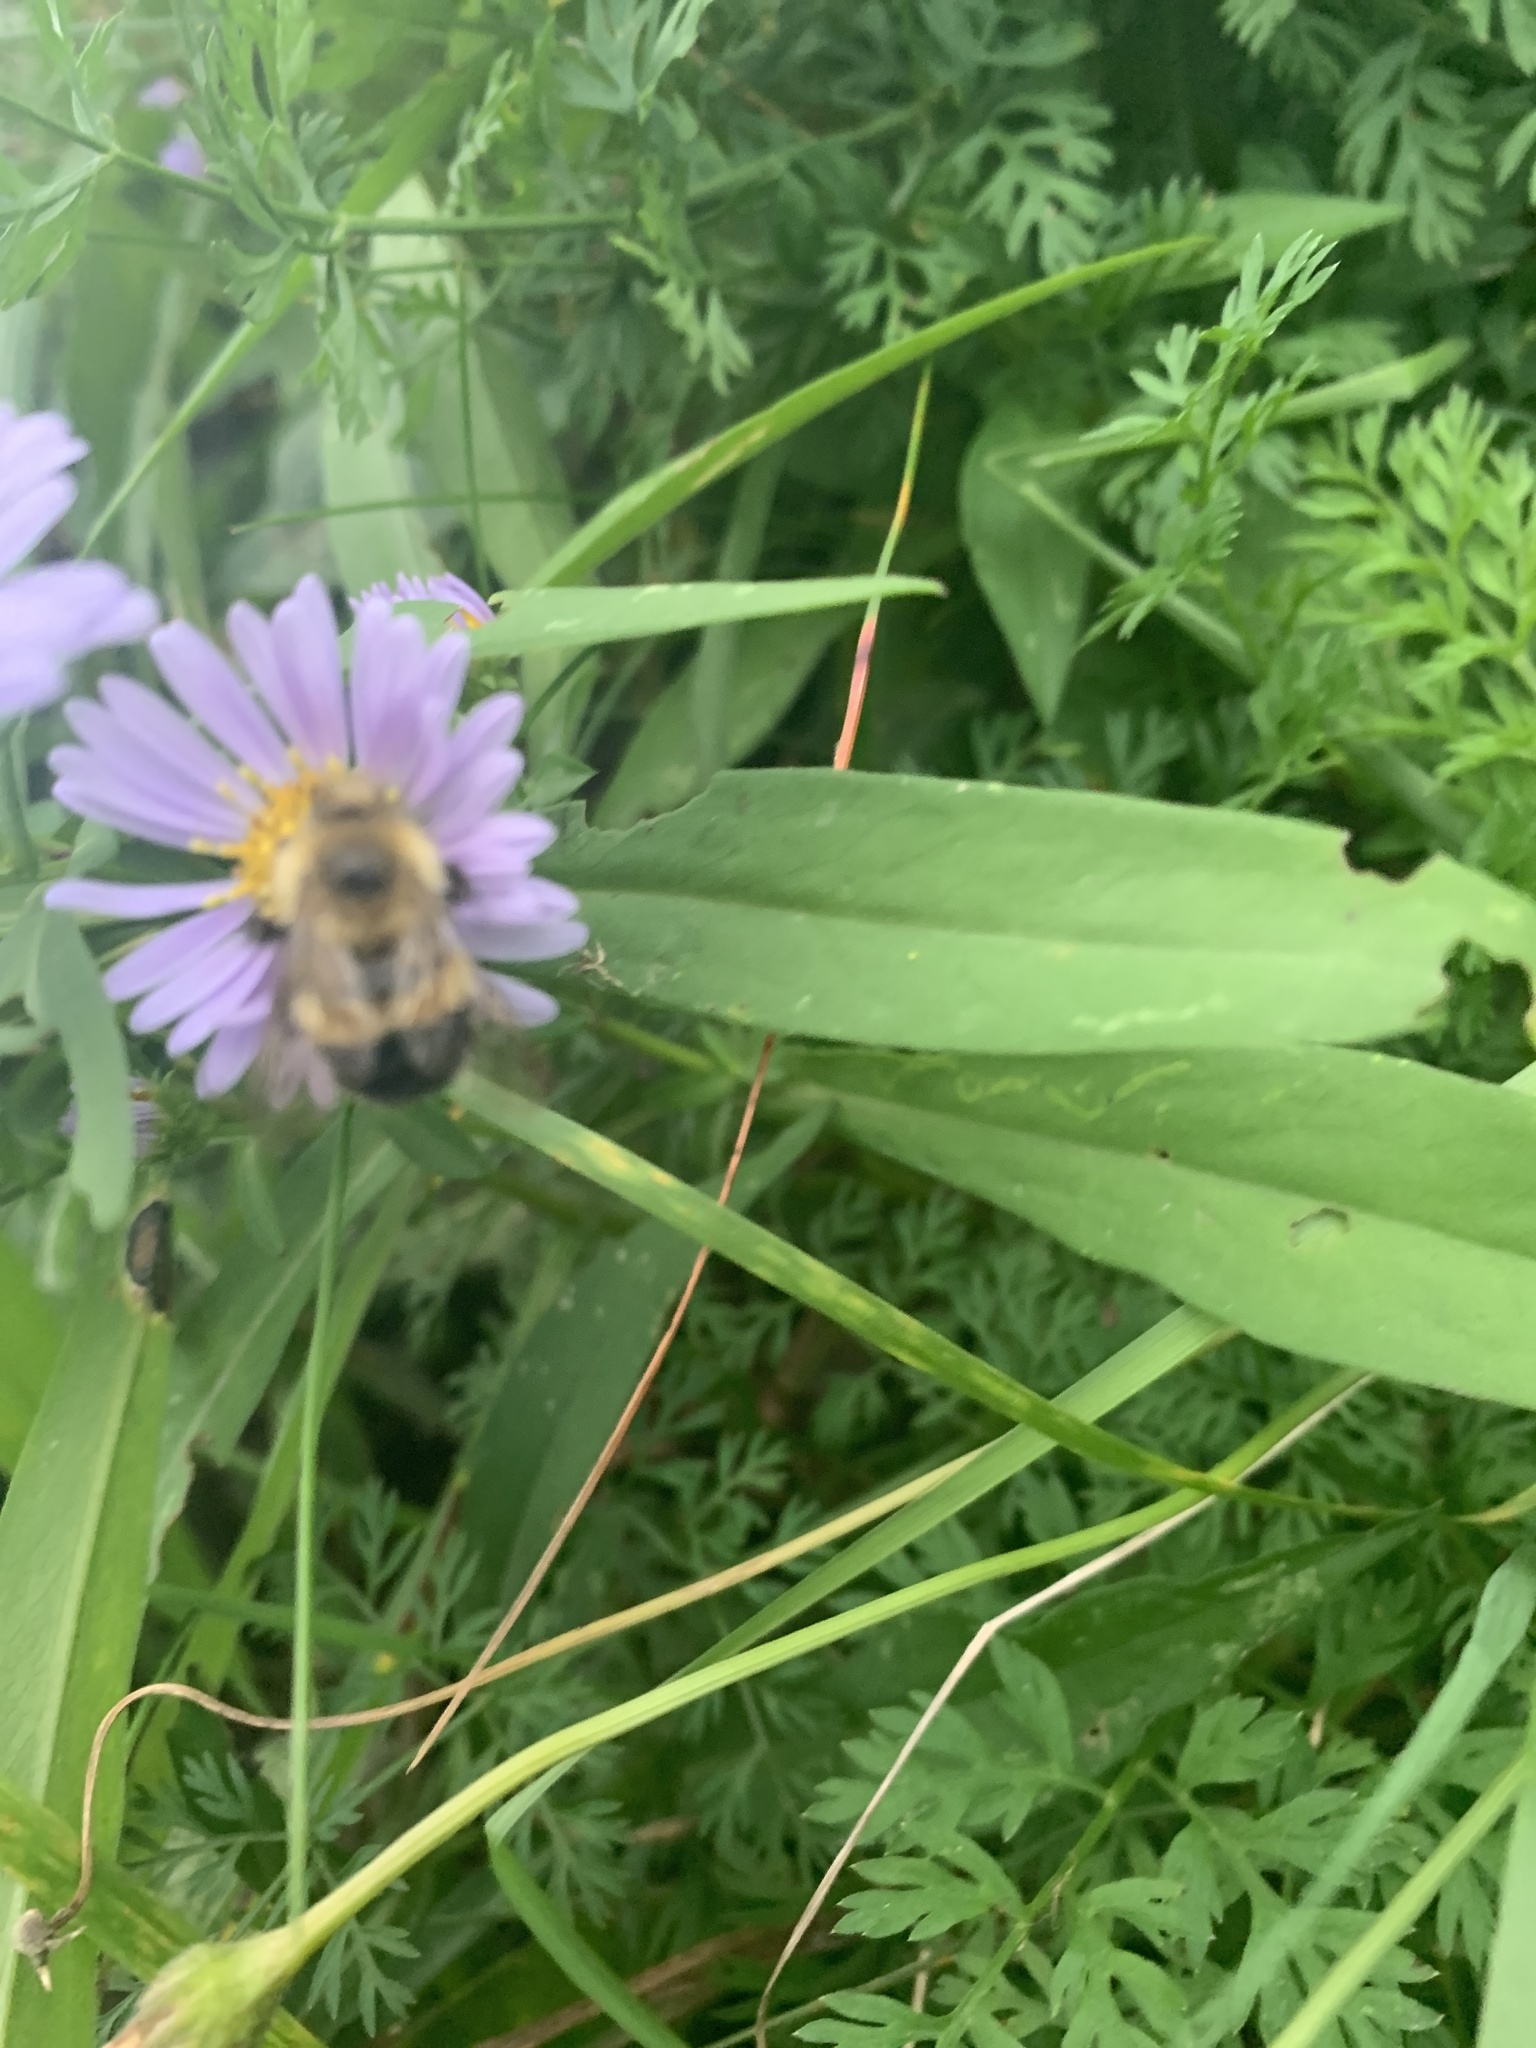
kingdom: Animalia
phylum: Arthropoda
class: Insecta
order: Hymenoptera
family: Apidae
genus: Pyrobombus
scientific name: Pyrobombus
